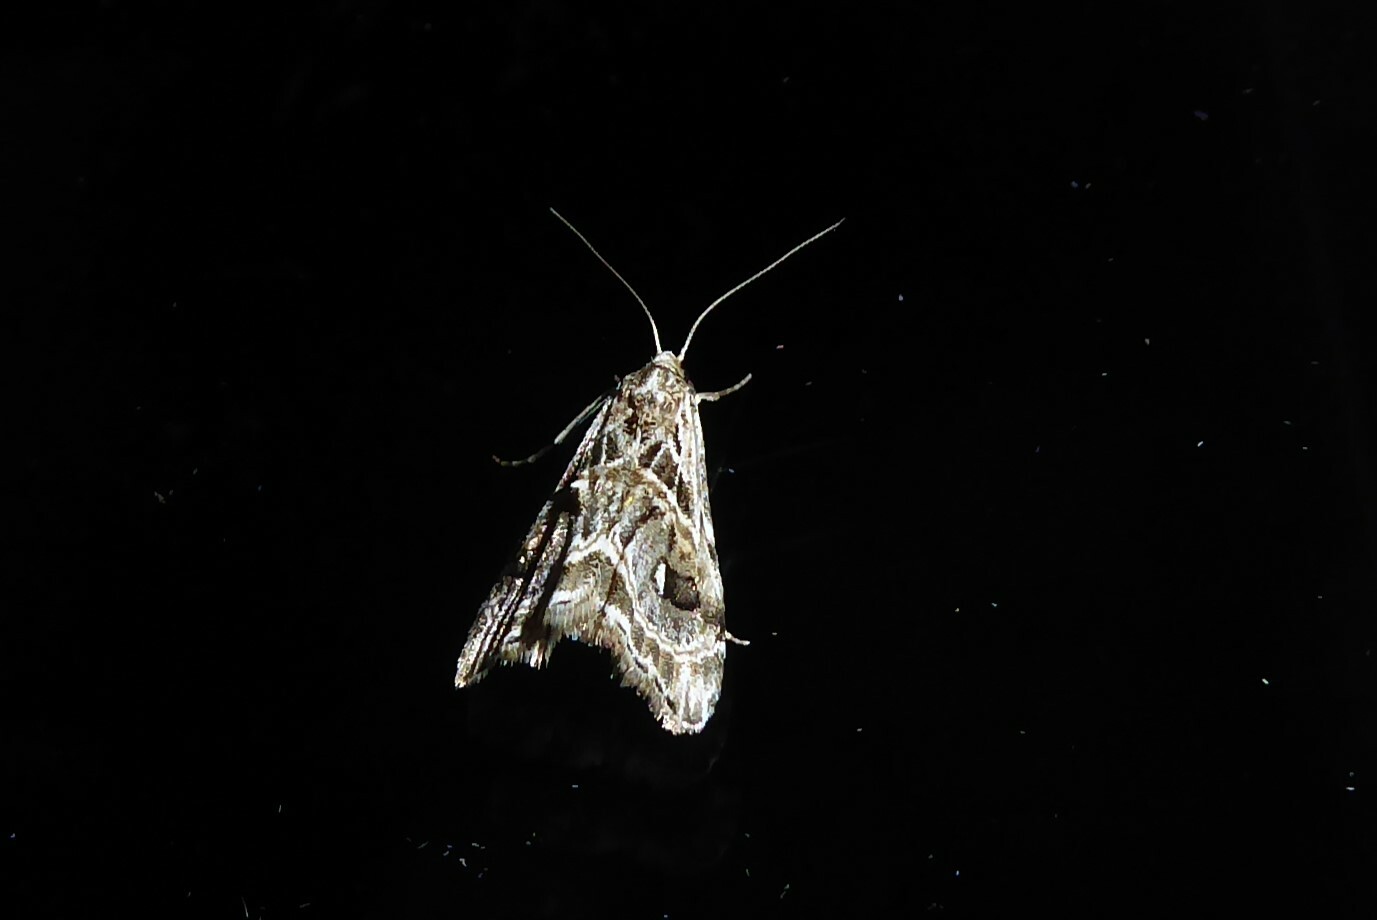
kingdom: Animalia
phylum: Arthropoda
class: Insecta
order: Lepidoptera
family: Crambidae
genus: Gadira
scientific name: Gadira acerella
